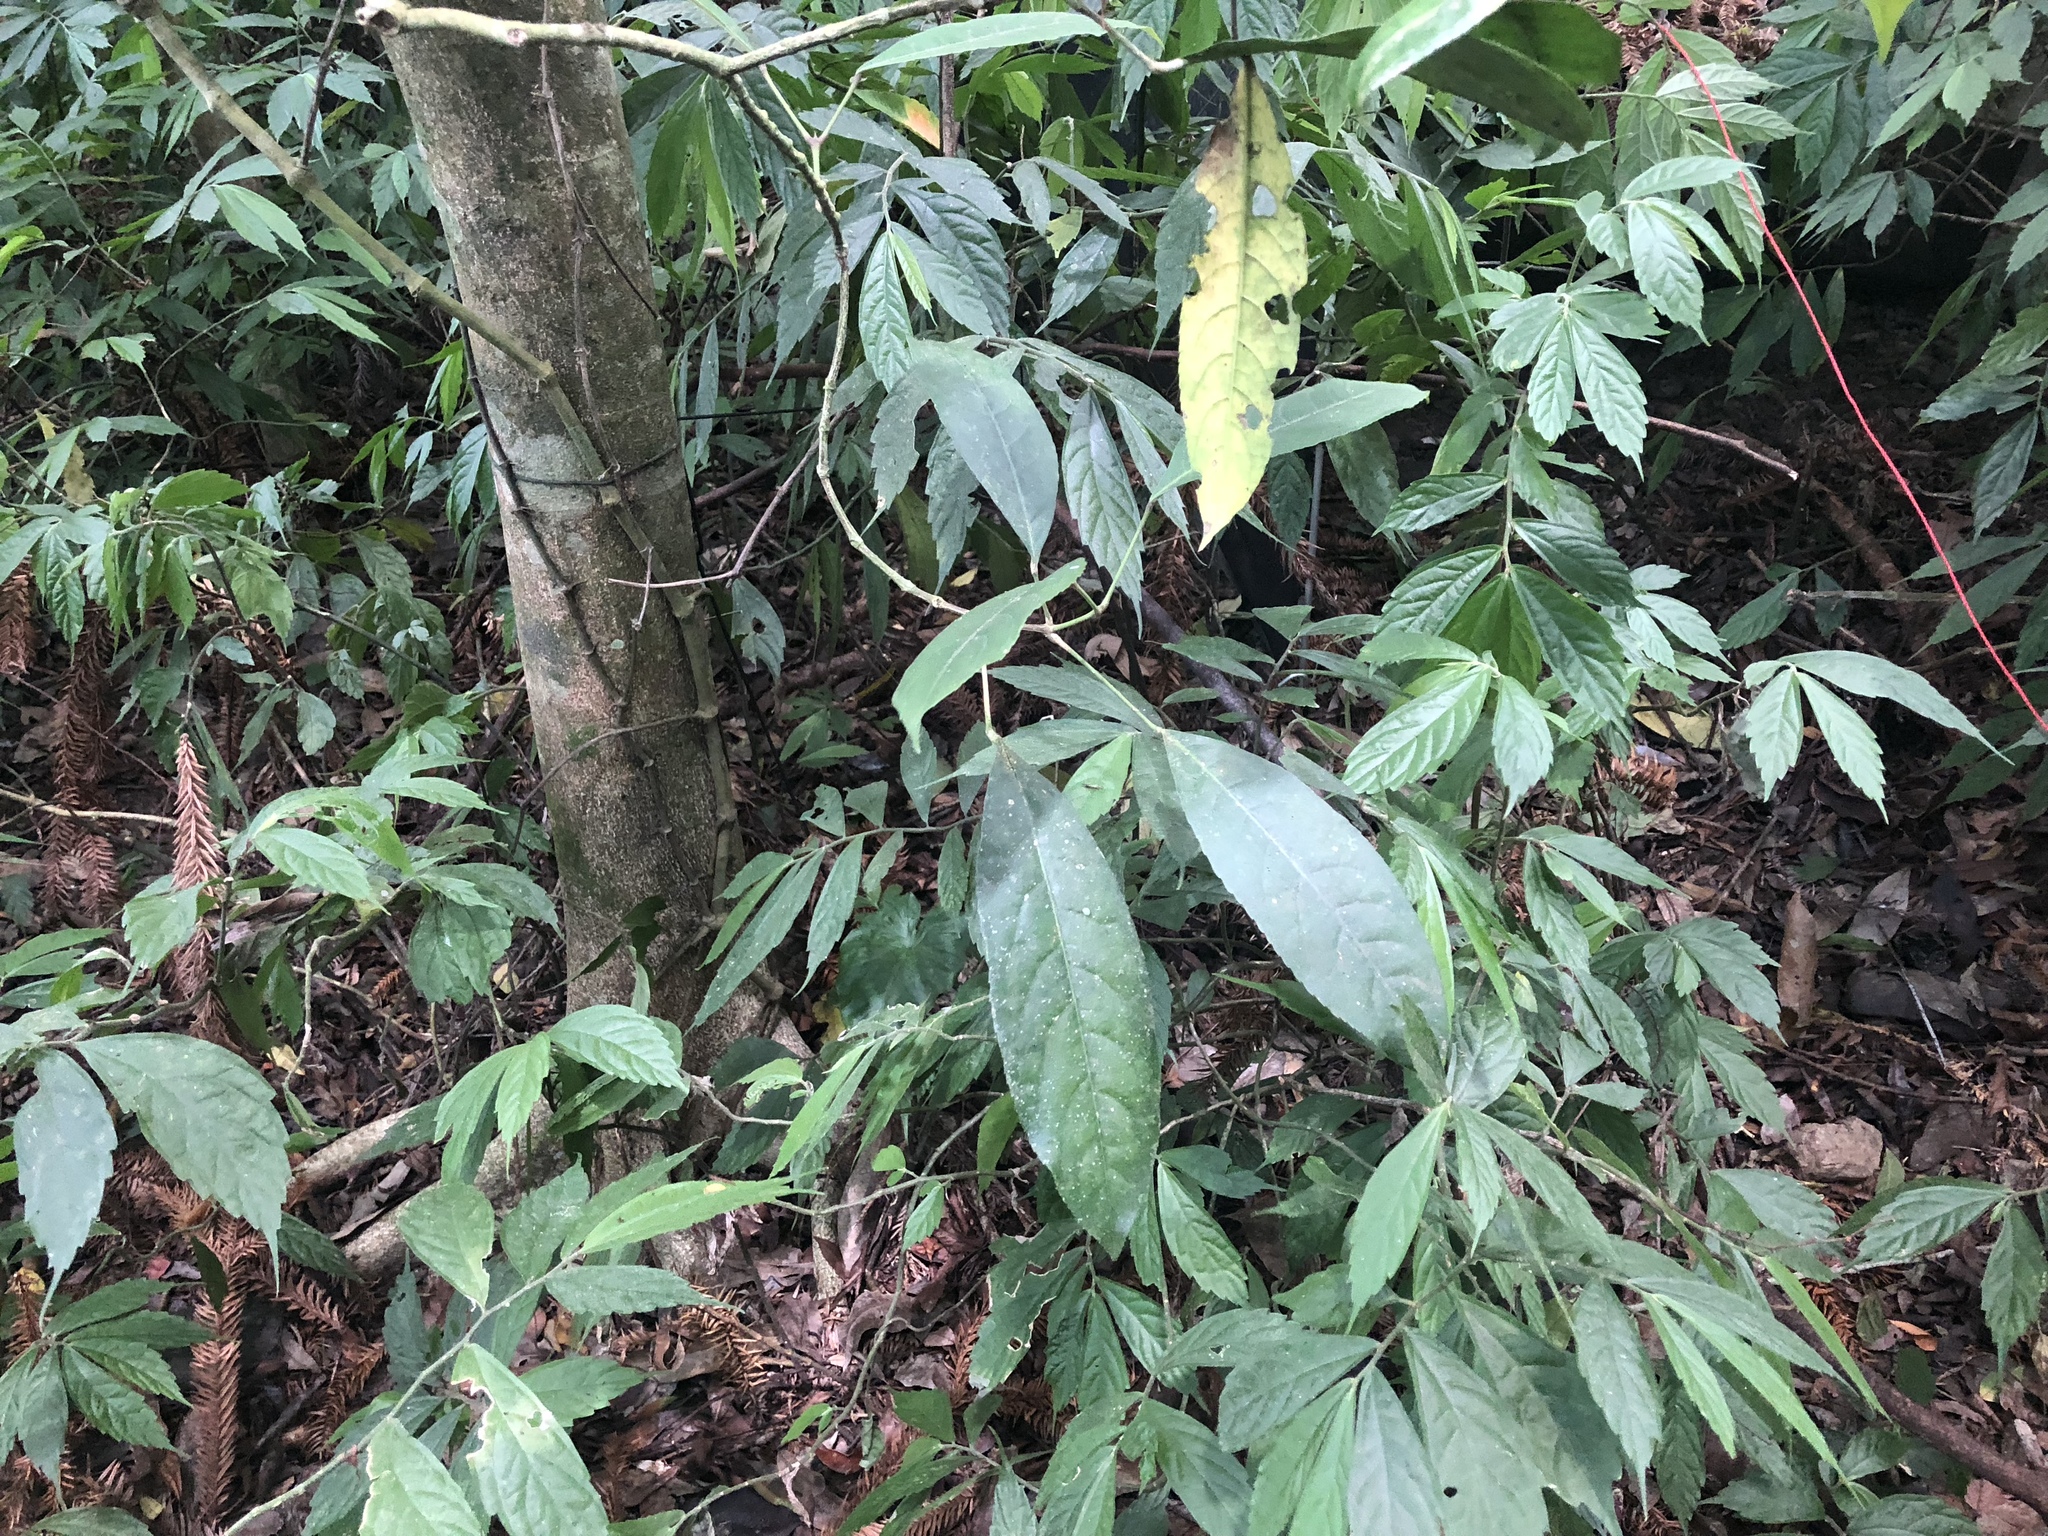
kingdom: Plantae
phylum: Tracheophyta
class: Magnoliopsida
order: Crossosomatales
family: Staphyleaceae
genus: Turpinia
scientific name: Turpinia formosana
